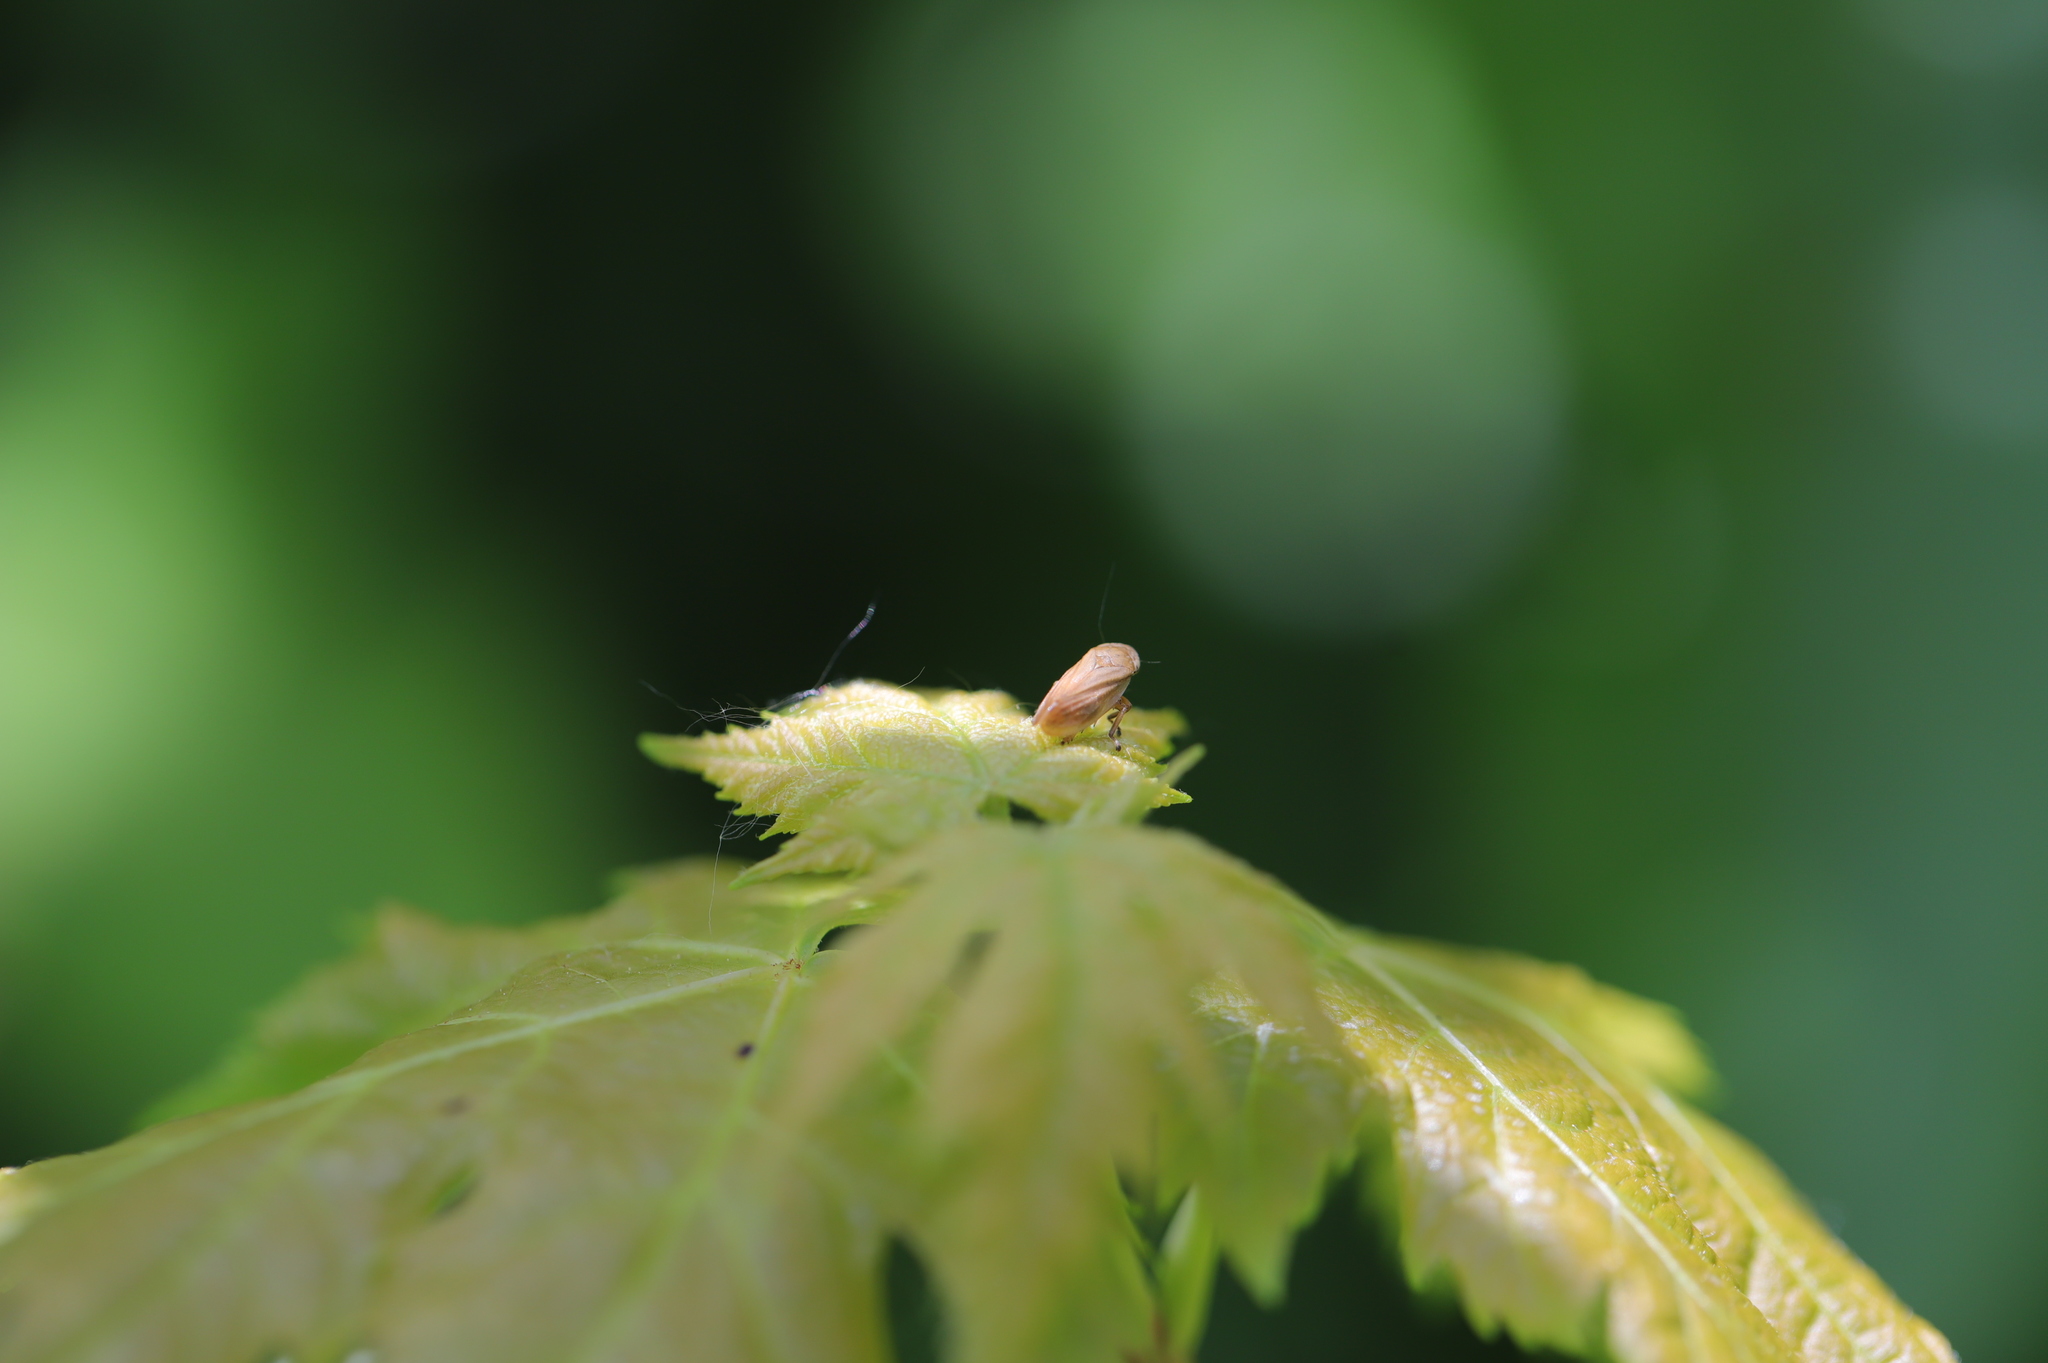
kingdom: Animalia
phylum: Arthropoda
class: Insecta
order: Hemiptera
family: Aphrophoridae
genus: Philaenus
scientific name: Philaenus spumarius
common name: Meadow spittlebug
